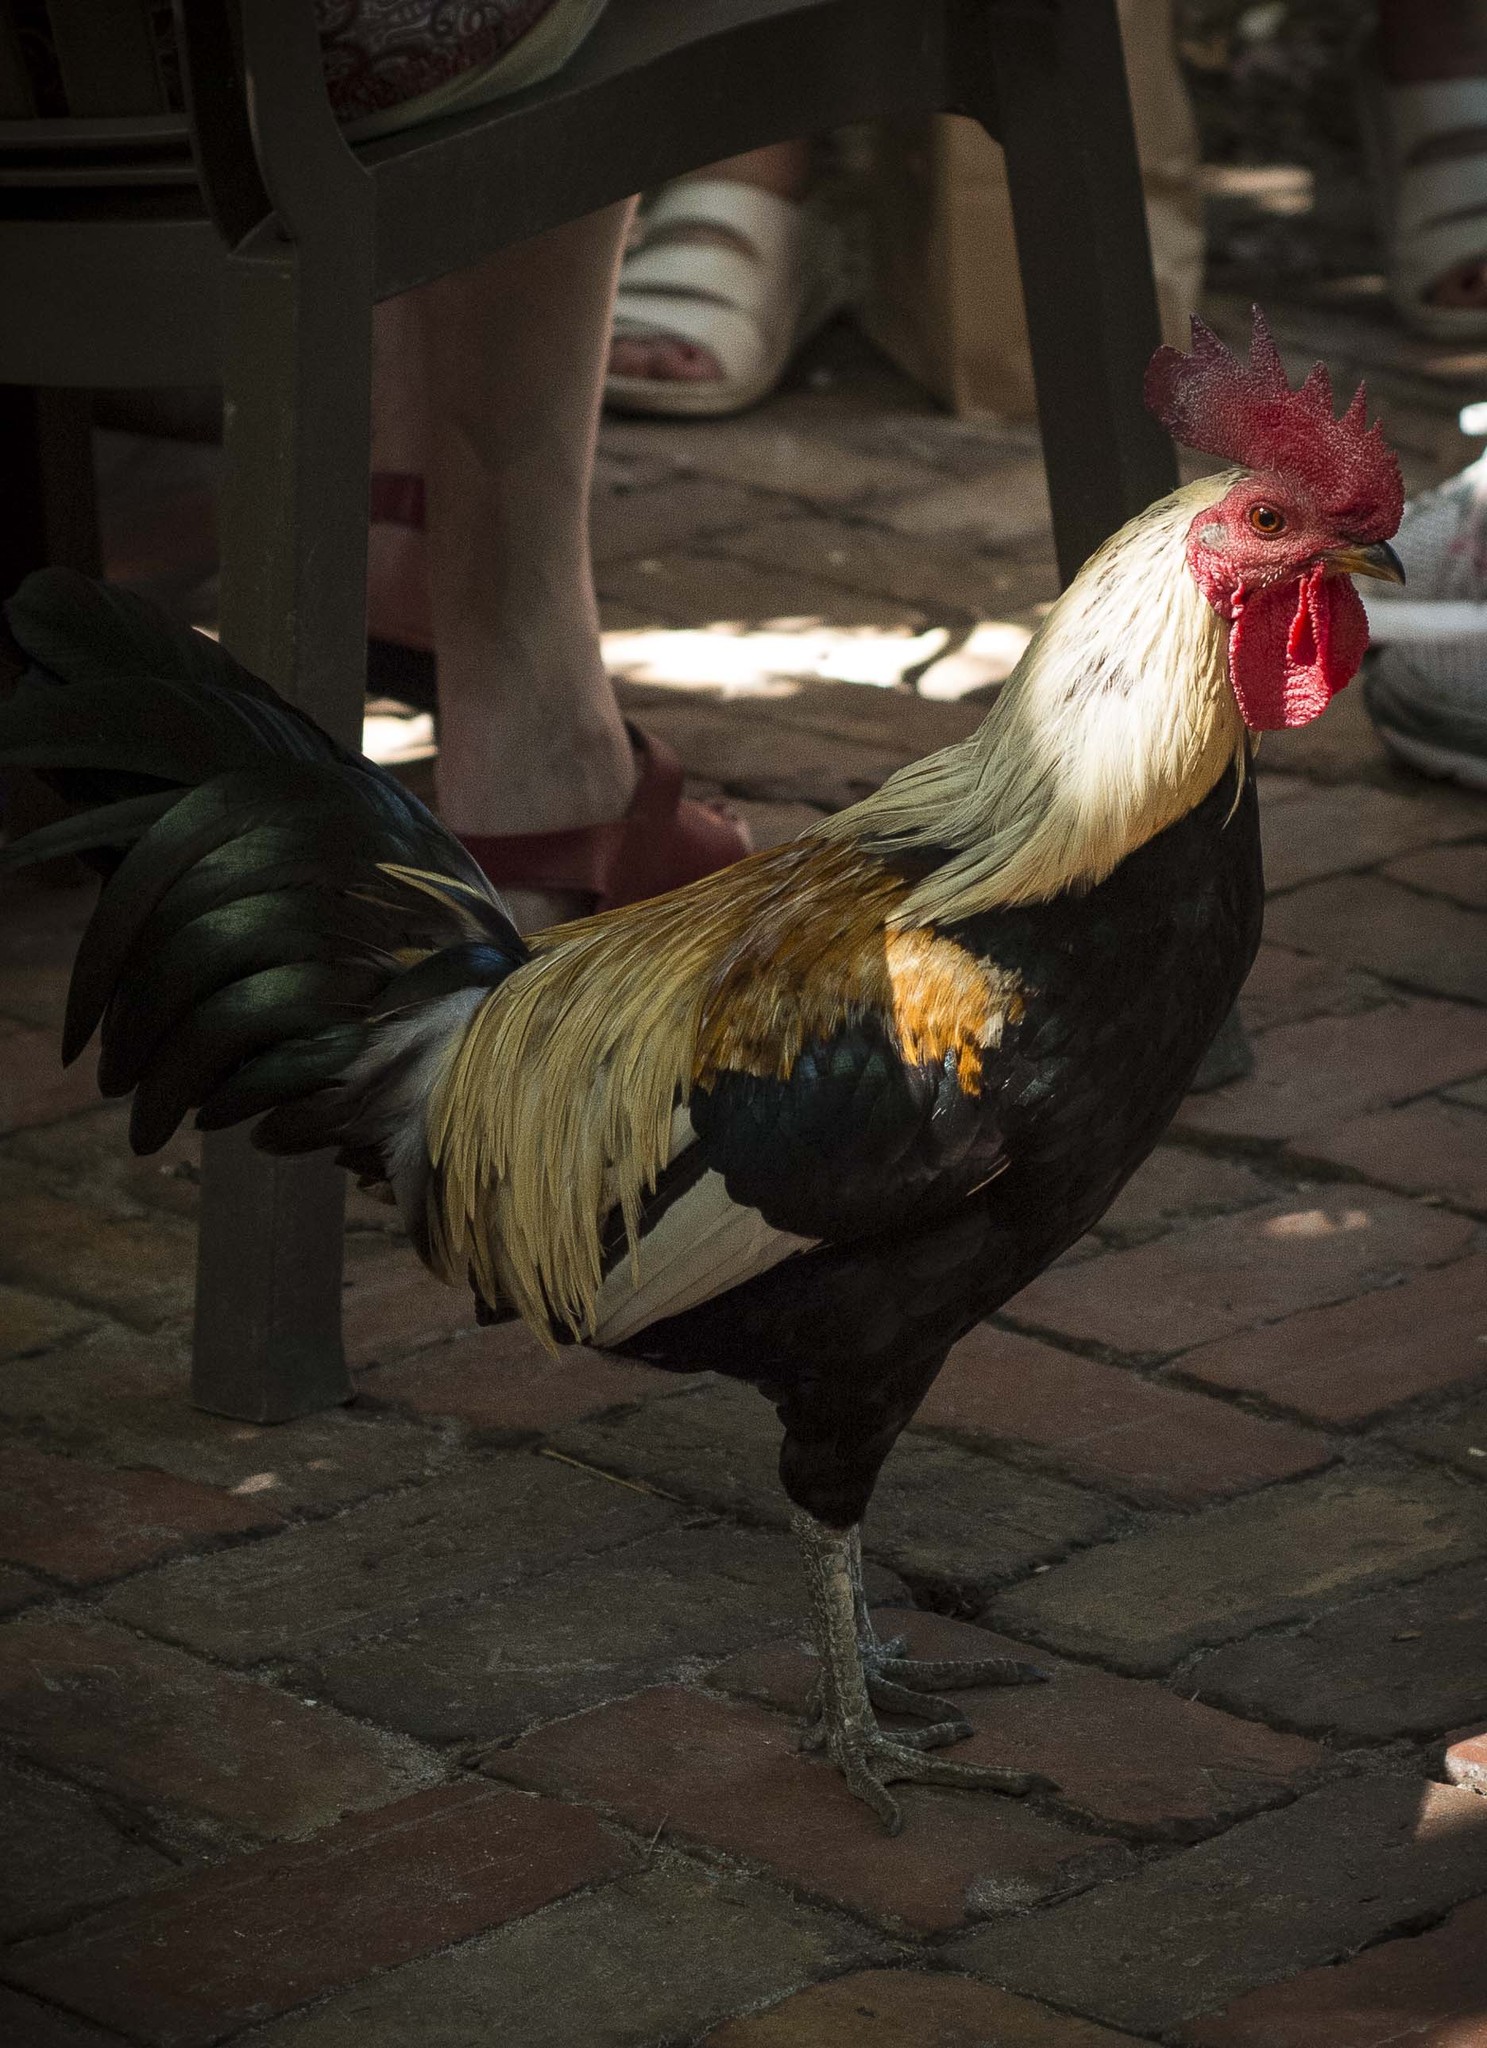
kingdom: Animalia
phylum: Chordata
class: Aves
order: Galliformes
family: Phasianidae
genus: Gallus
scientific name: Gallus gallus
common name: Red junglefowl
